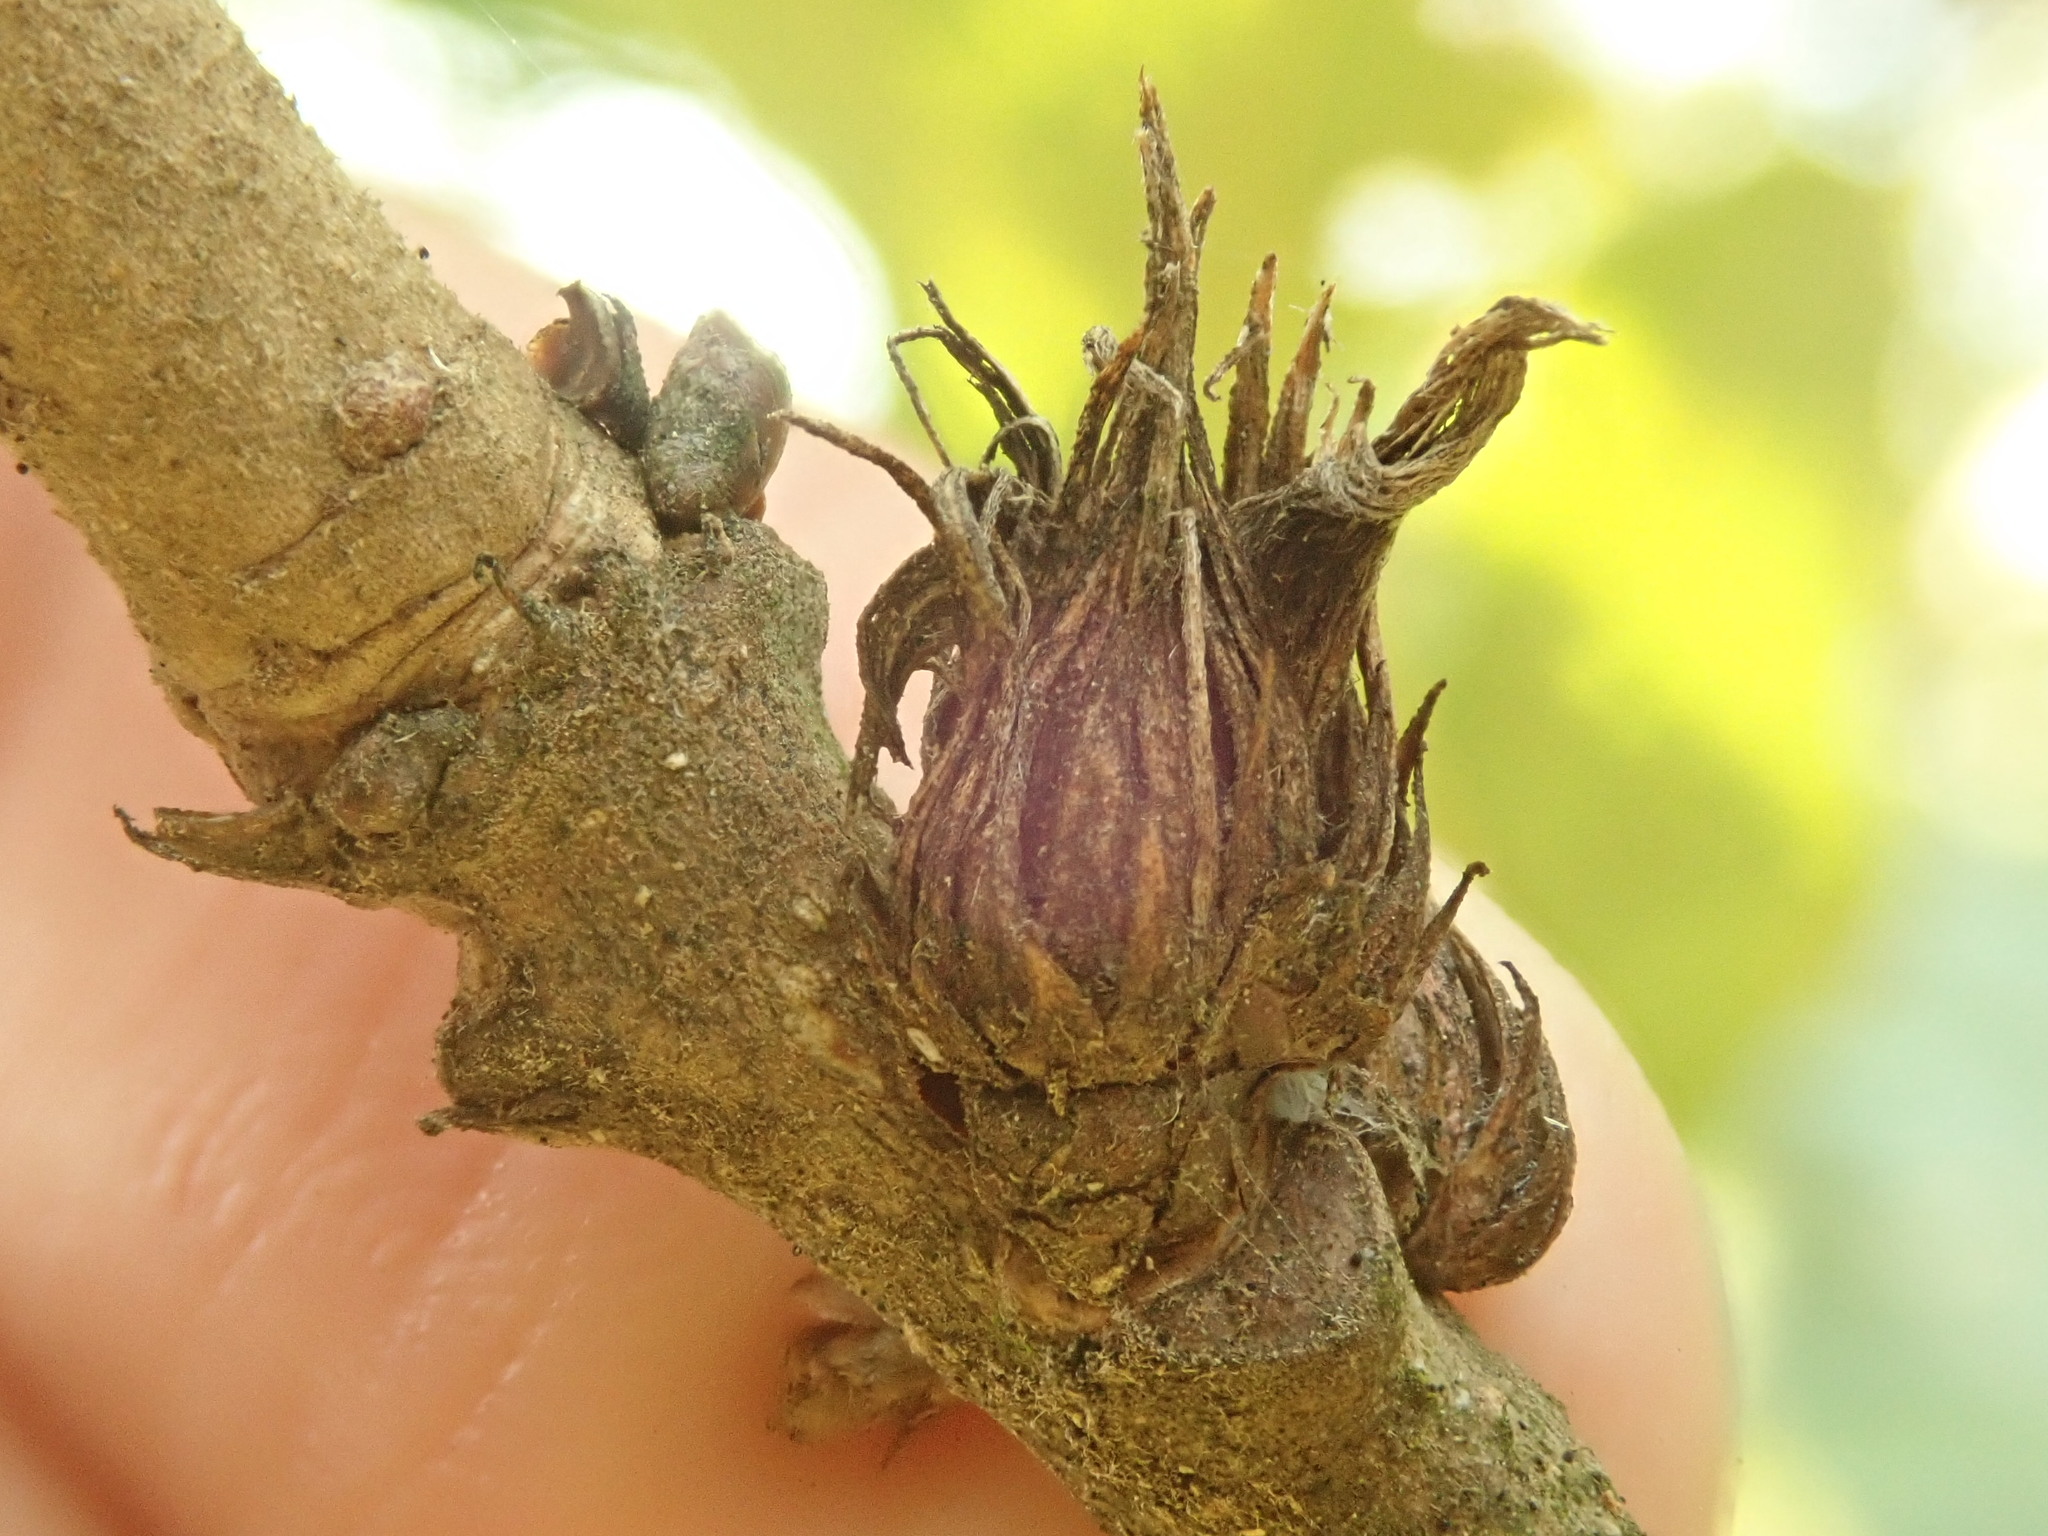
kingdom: Animalia
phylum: Arthropoda
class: Insecta
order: Hymenoptera
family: Cynipidae
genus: Andricus
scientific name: Andricus
